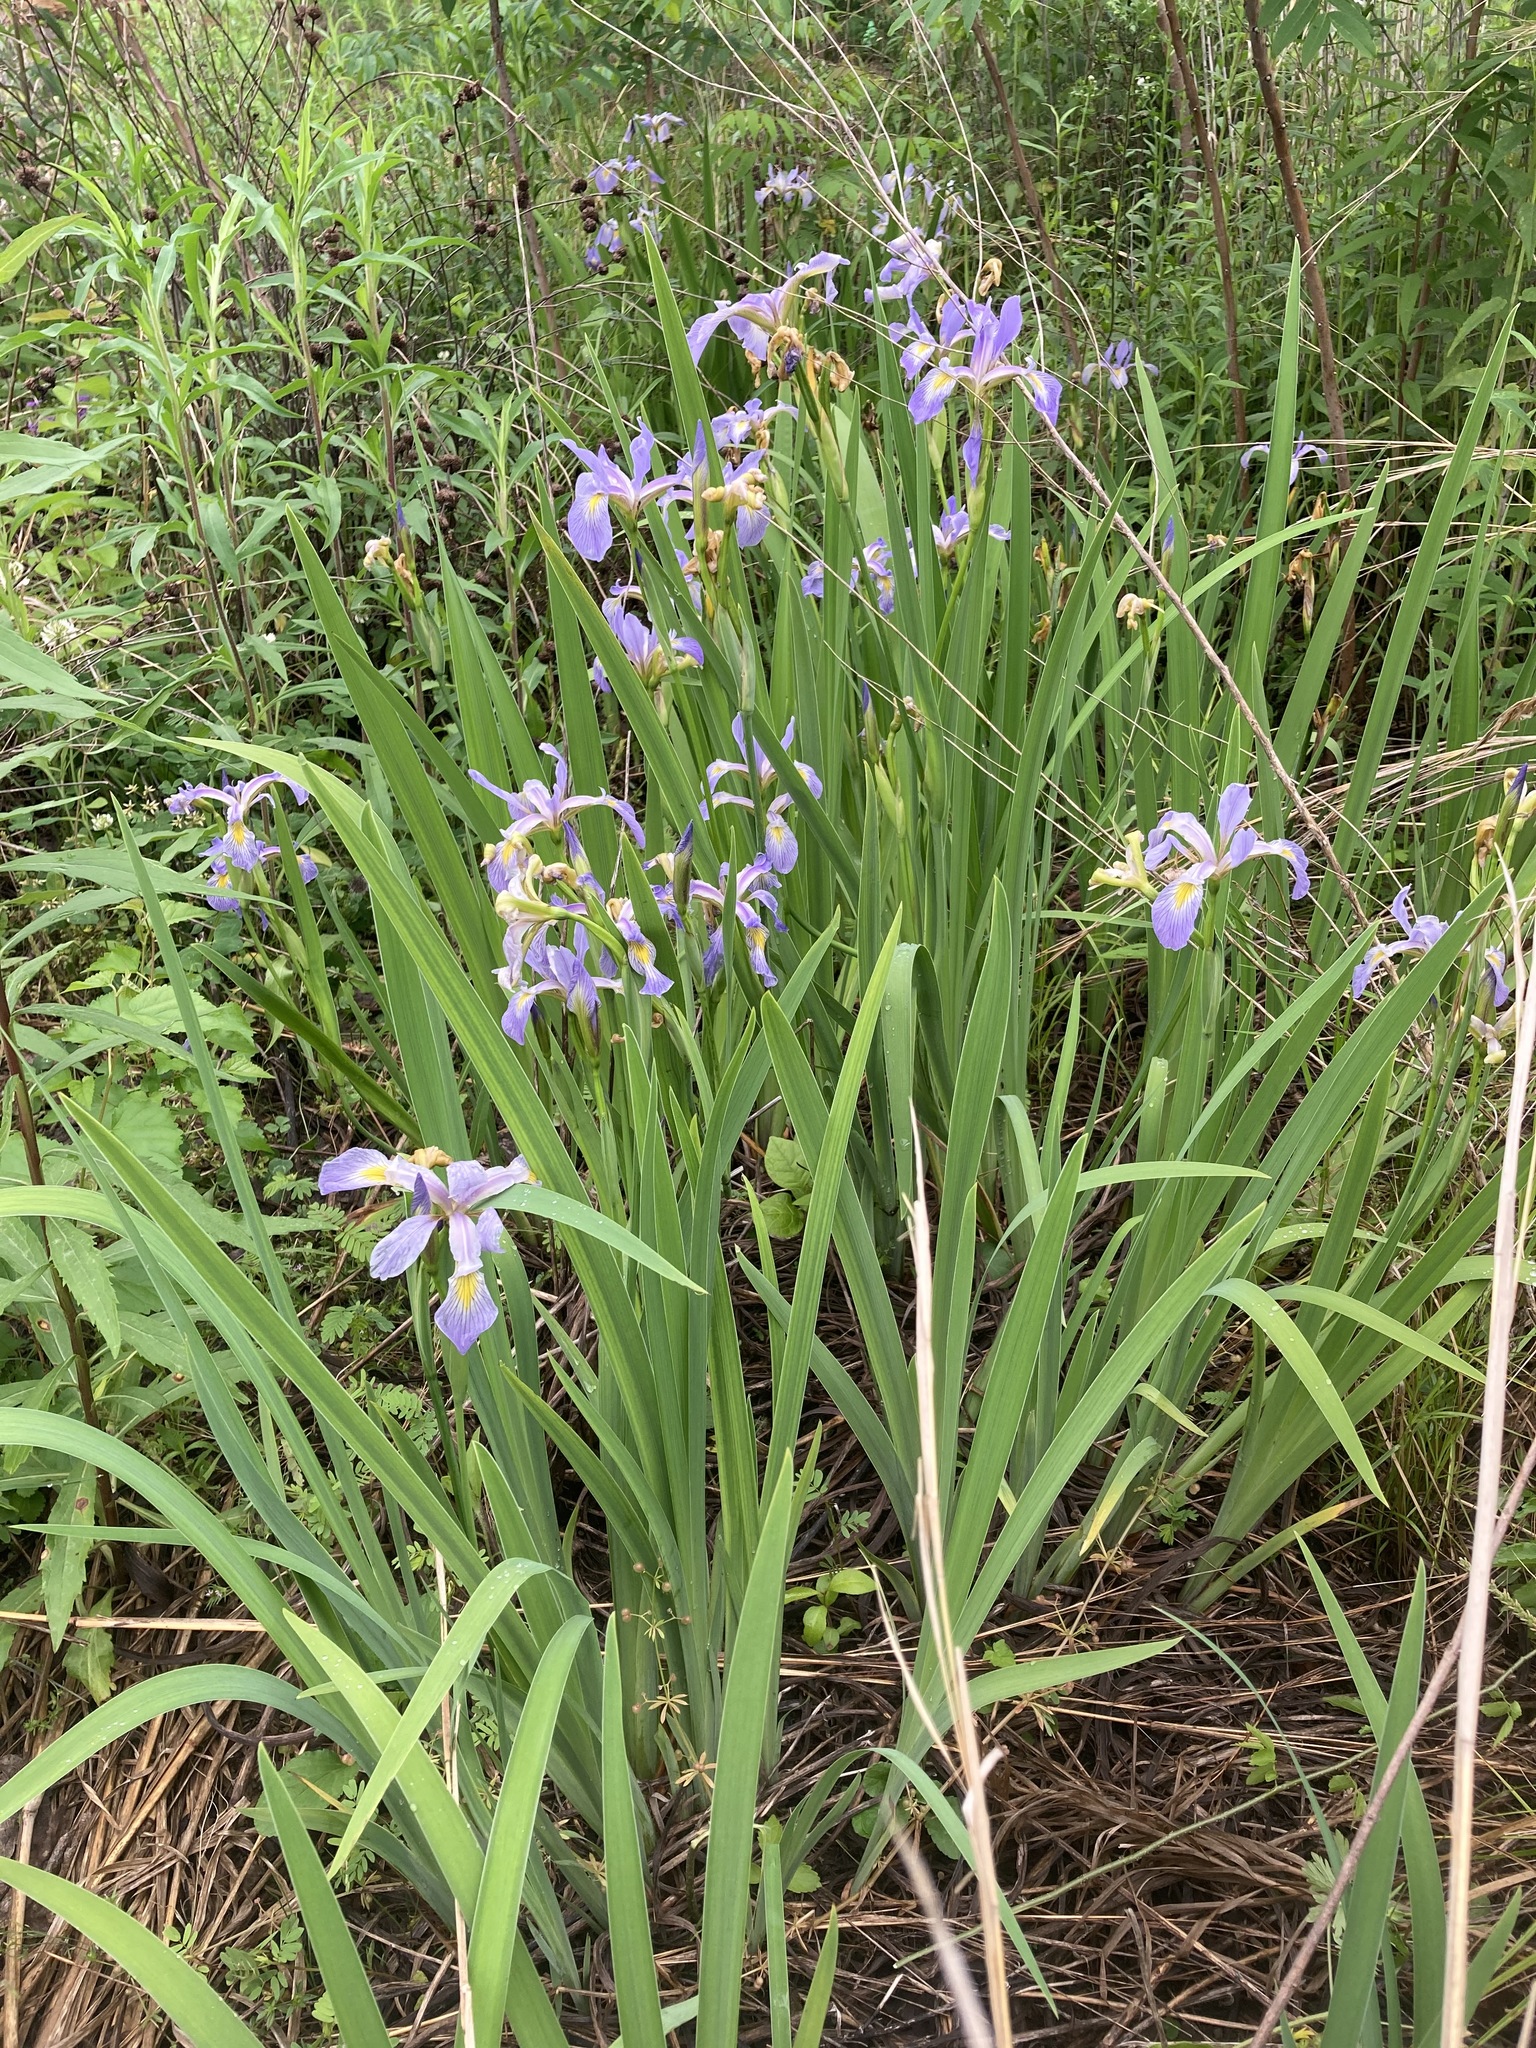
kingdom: Plantae
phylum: Tracheophyta
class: Liliopsida
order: Asparagales
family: Iridaceae
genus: Iris
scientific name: Iris virginica
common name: Southern blue flag
